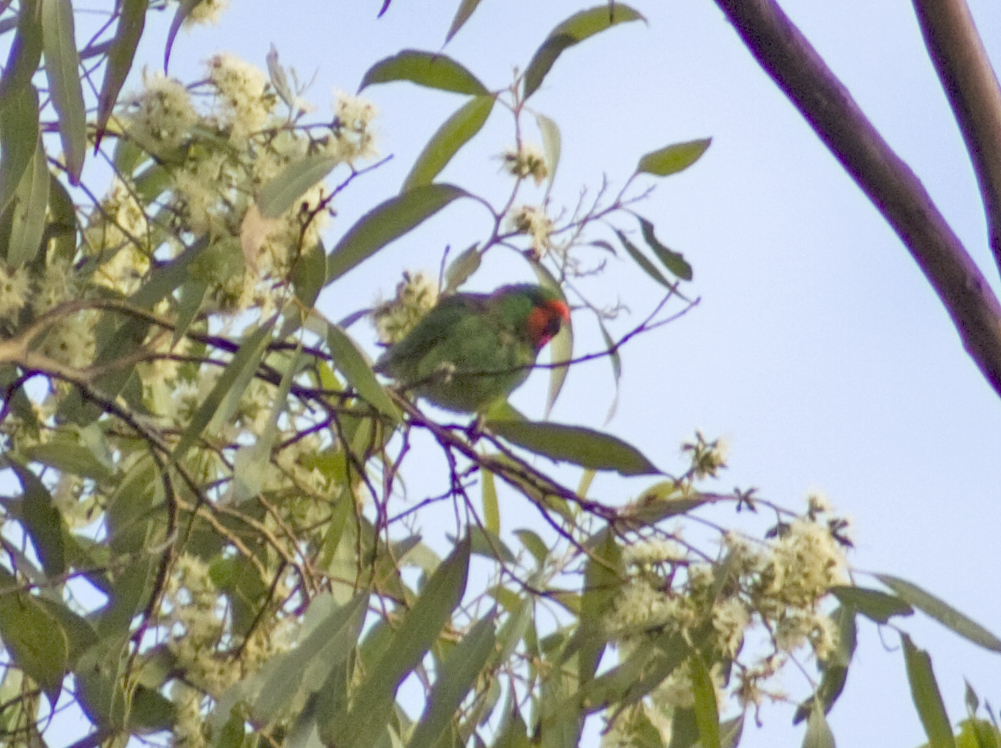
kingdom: Animalia
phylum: Chordata
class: Aves
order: Psittaciformes
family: Psittaculidae
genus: Parvipsitta
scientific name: Parvipsitta pusilla
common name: Little lorikeet
